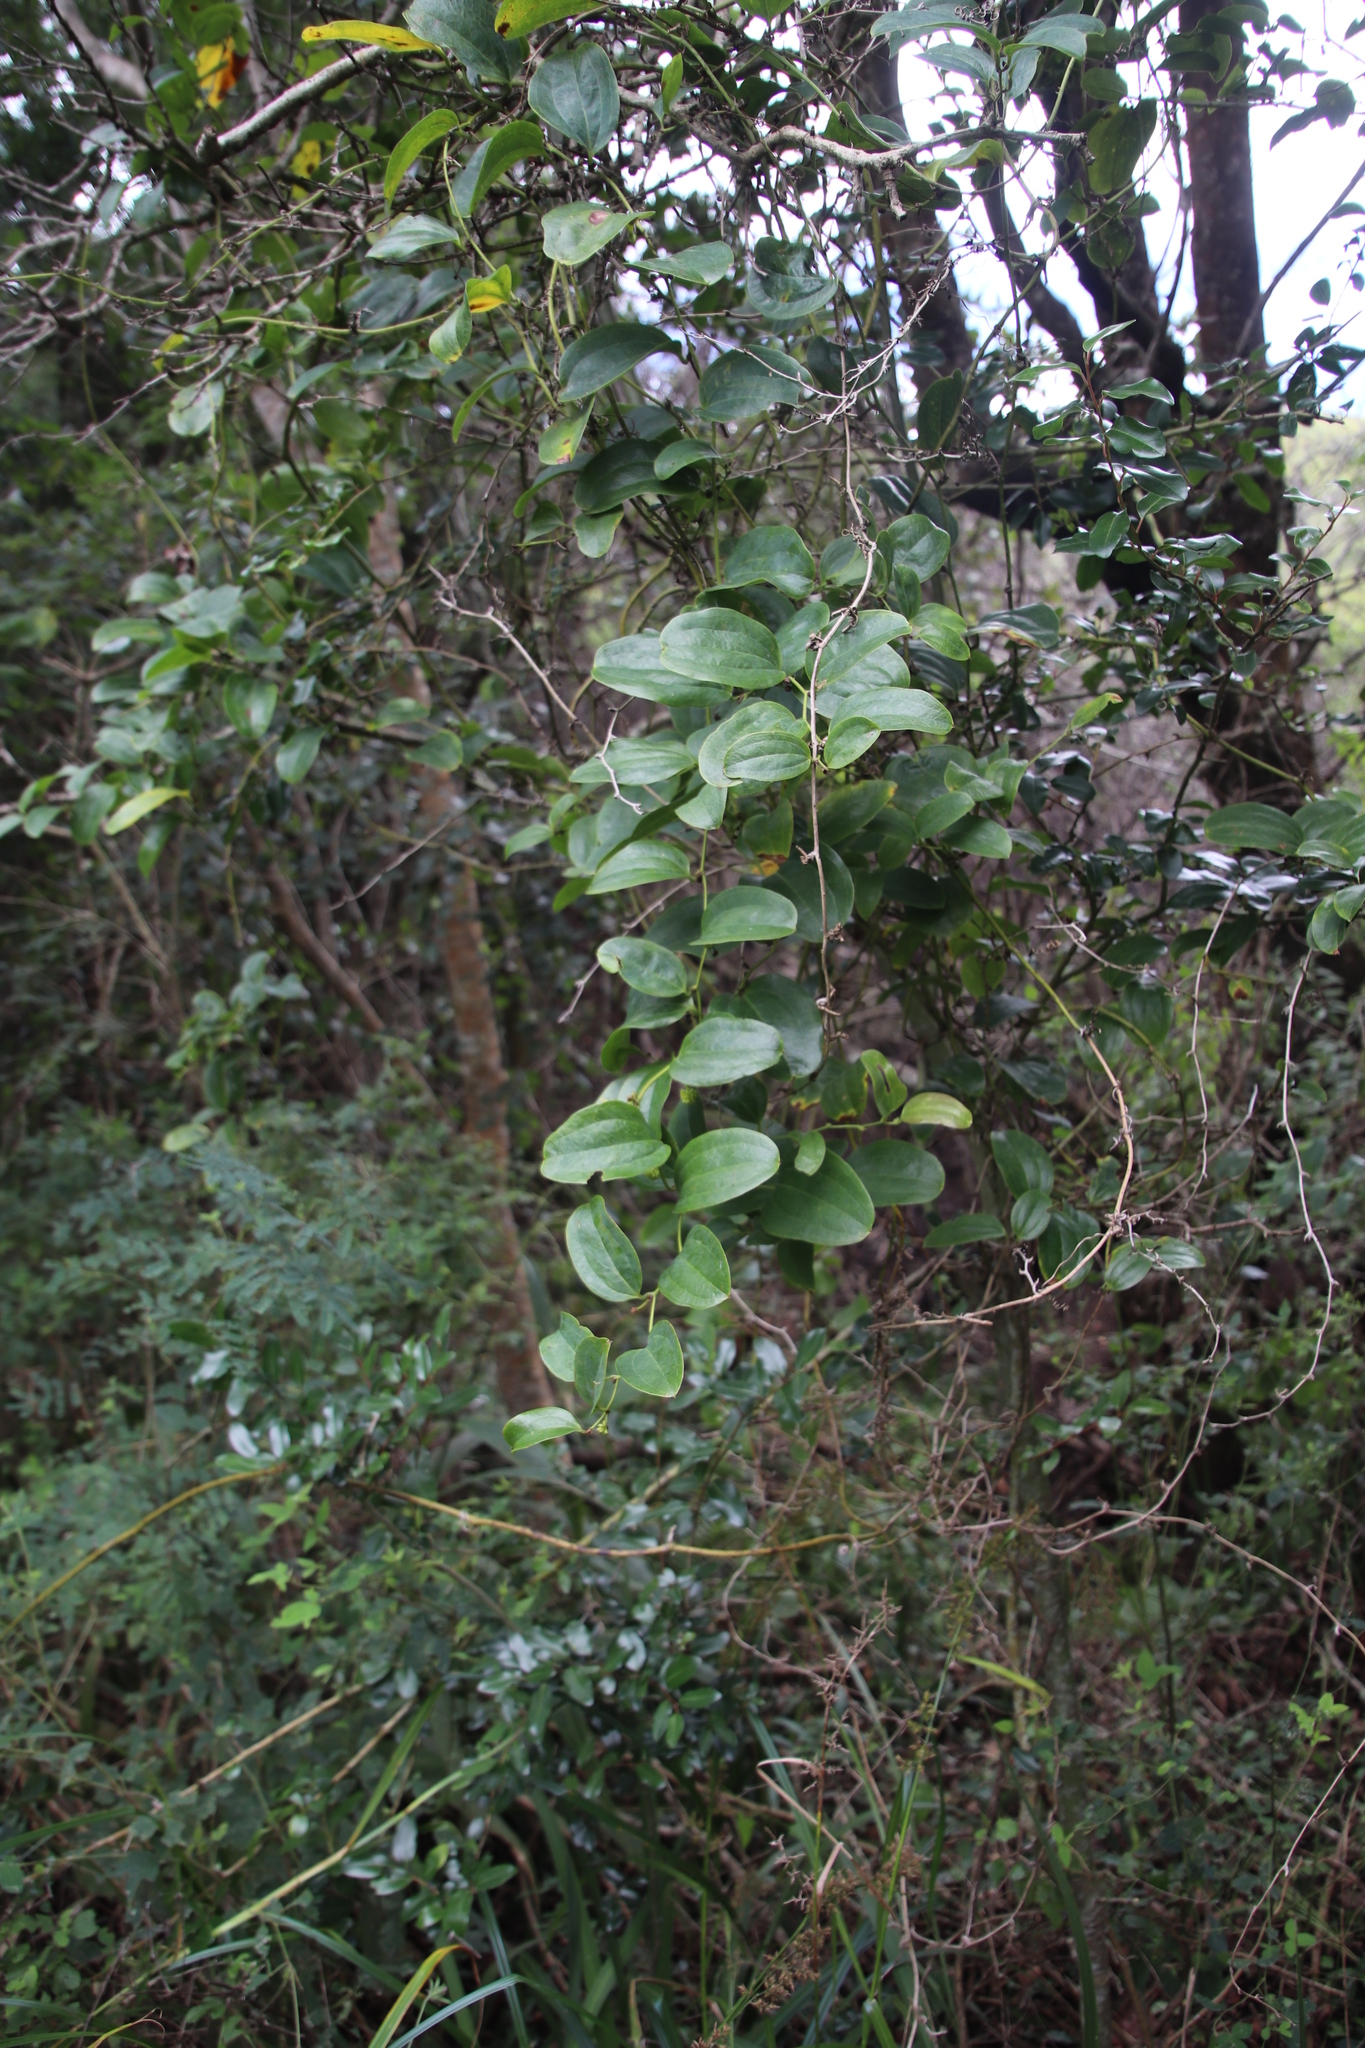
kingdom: Plantae
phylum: Tracheophyta
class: Liliopsida
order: Liliales
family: Smilacaceae
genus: Smilax
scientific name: Smilax anceps
